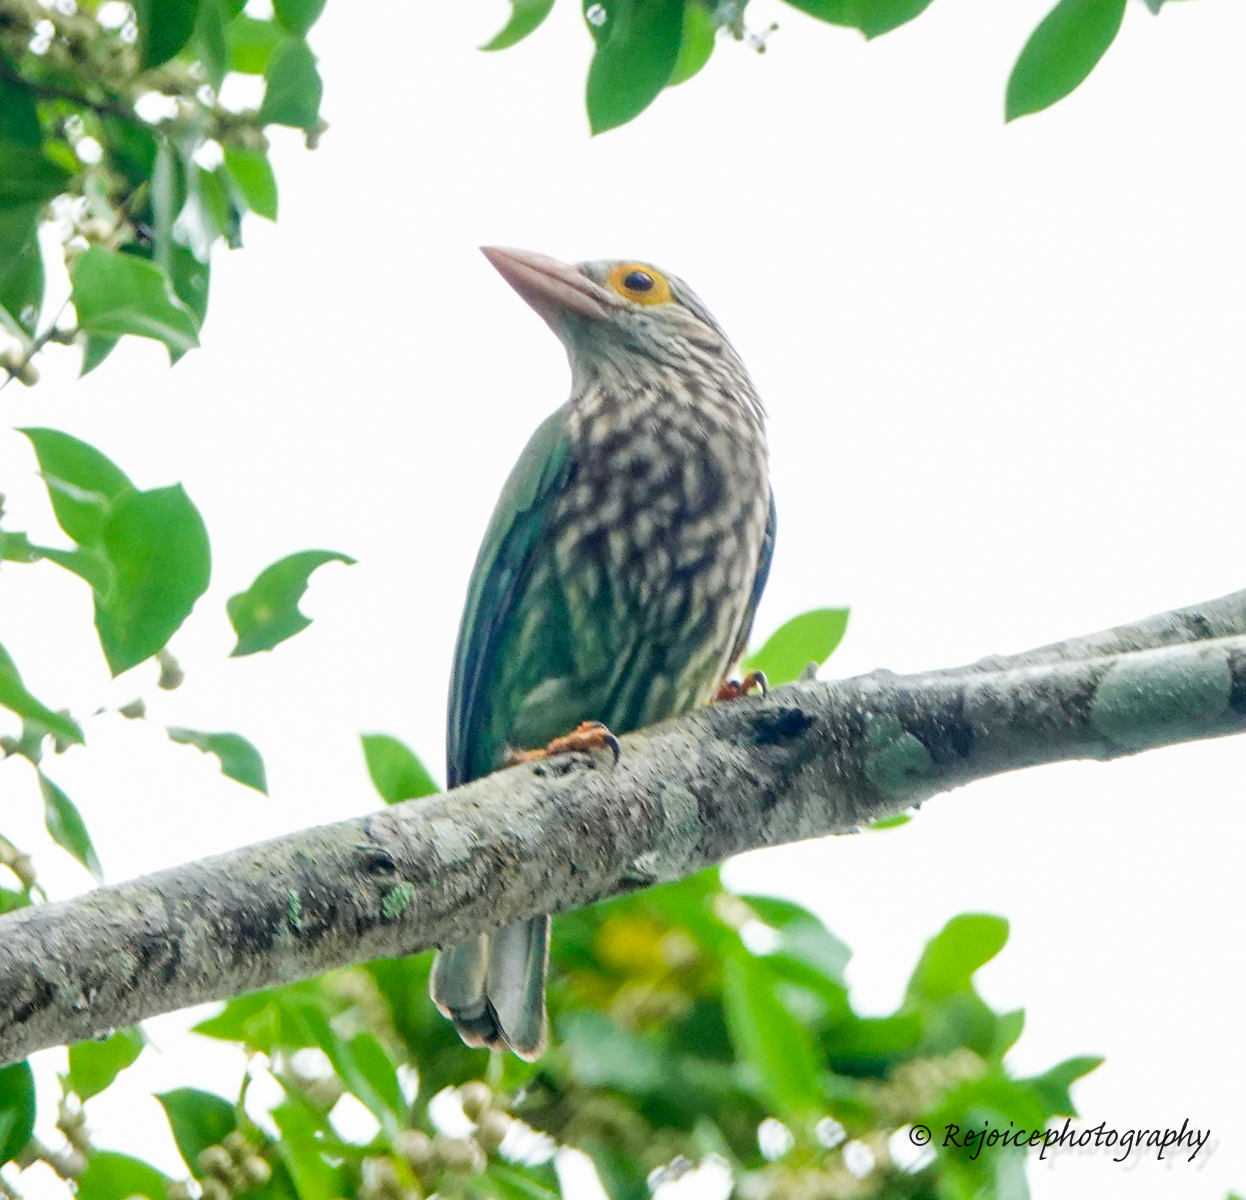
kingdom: Animalia
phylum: Chordata
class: Aves
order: Piciformes
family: Megalaimidae
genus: Psilopogon
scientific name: Psilopogon lineatus
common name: Lineated barbet
